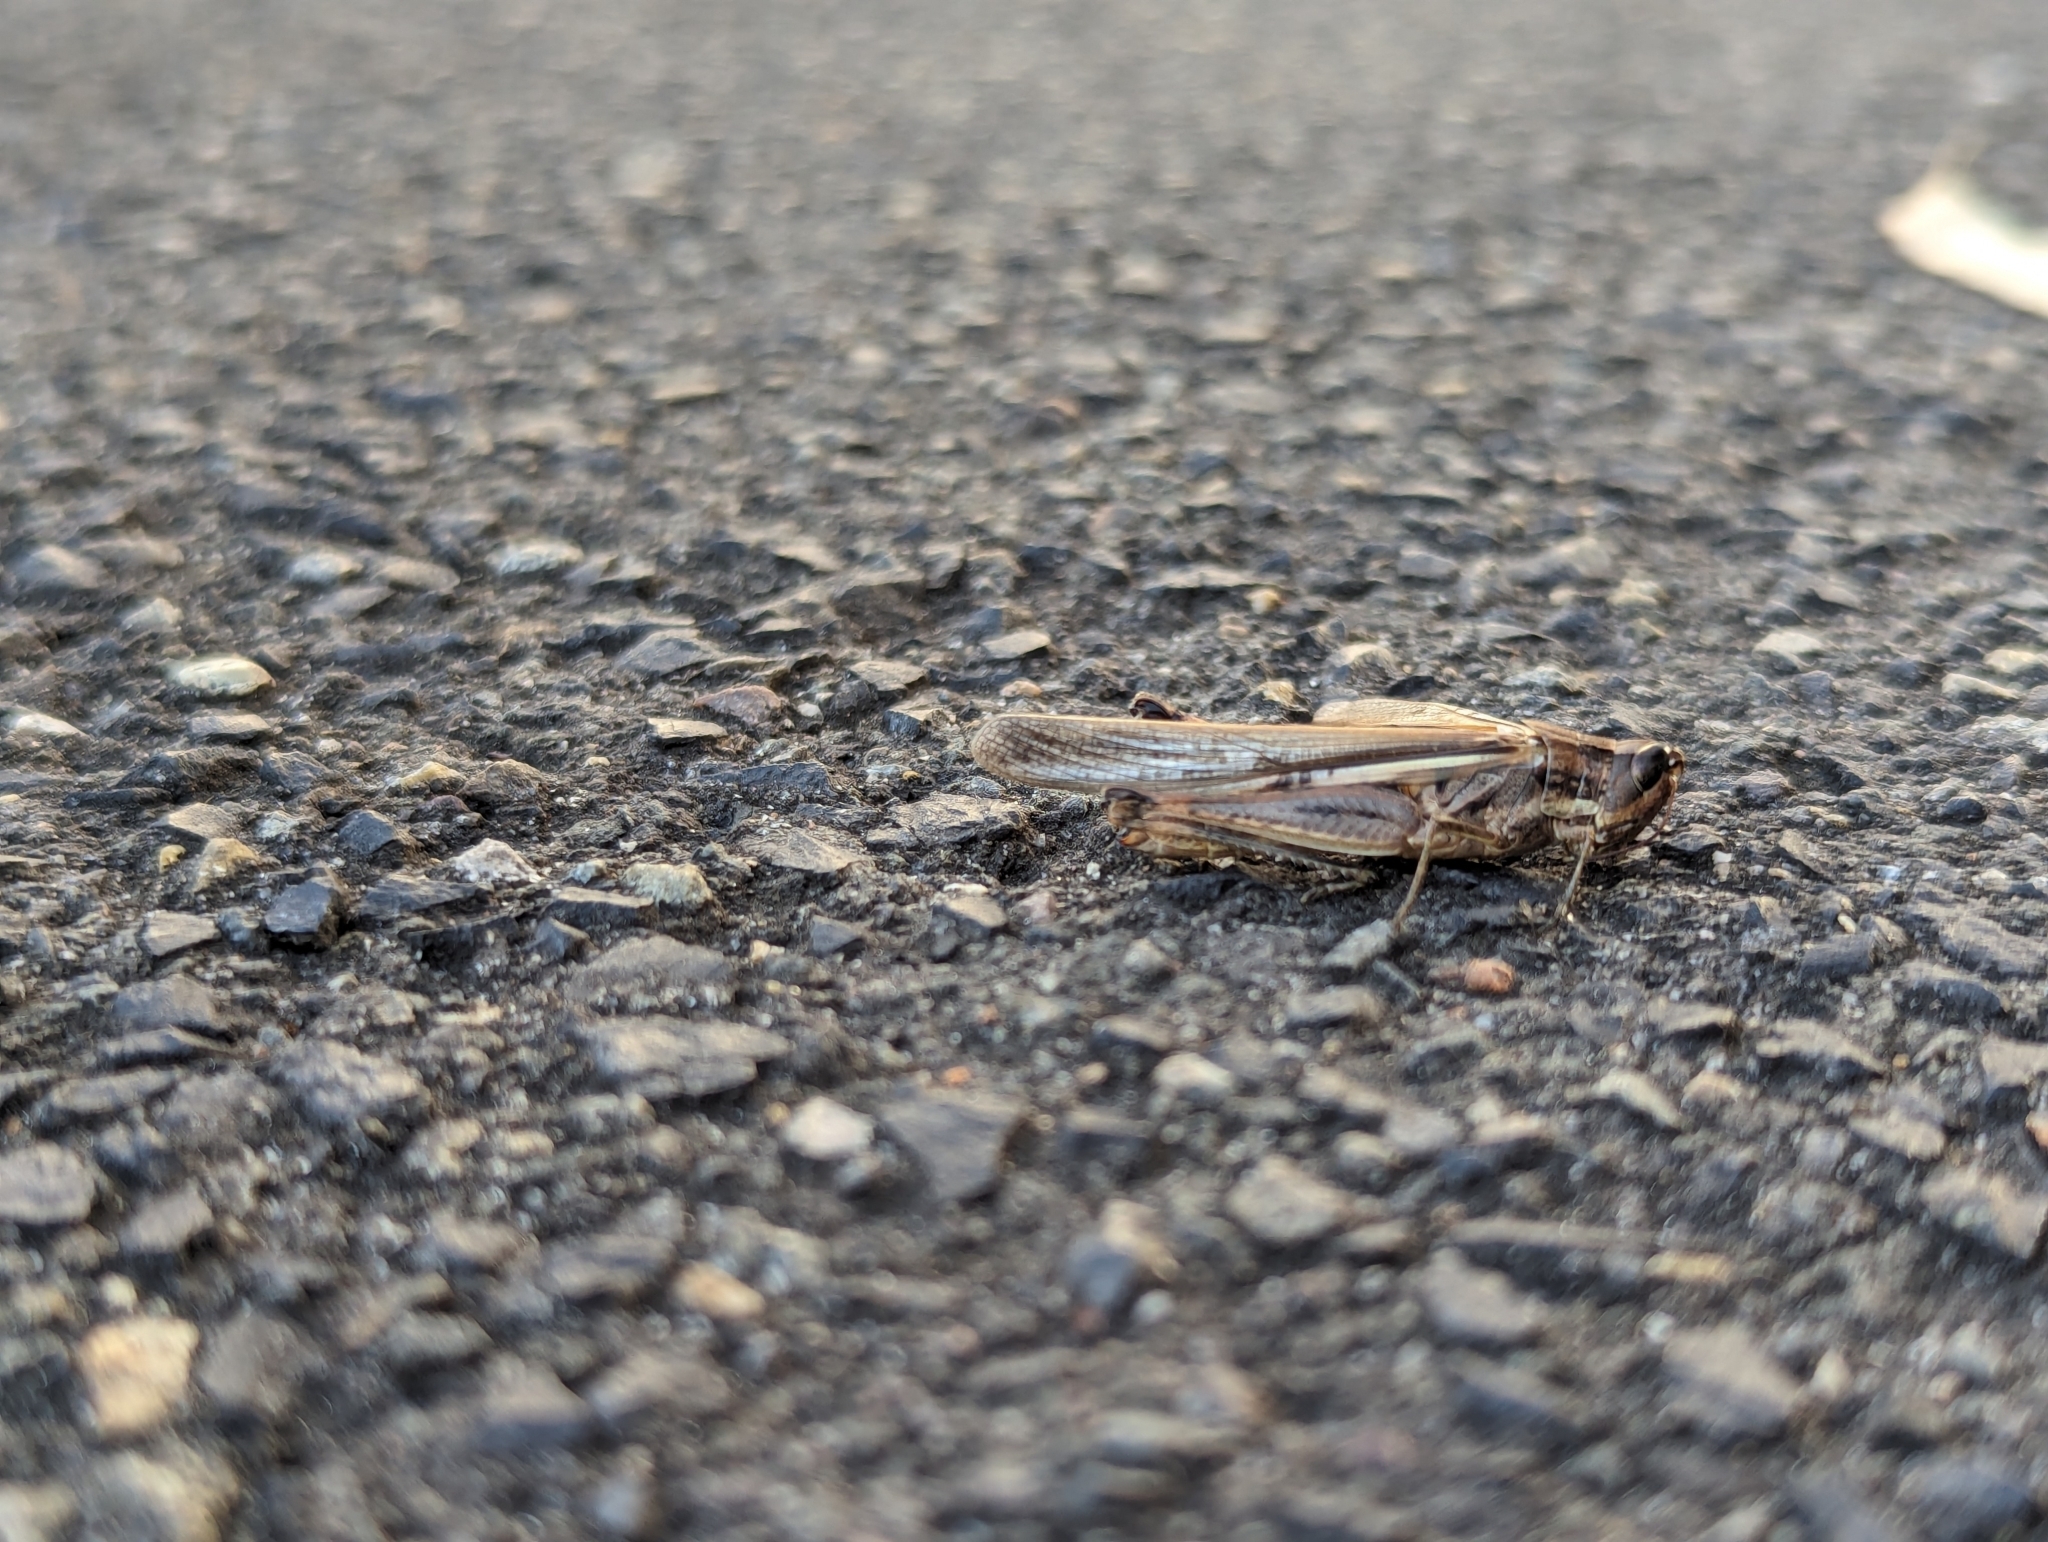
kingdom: Animalia
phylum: Arthropoda
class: Insecta
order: Orthoptera
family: Acrididae
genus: Aiolopus
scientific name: Aiolopus thalassinus
